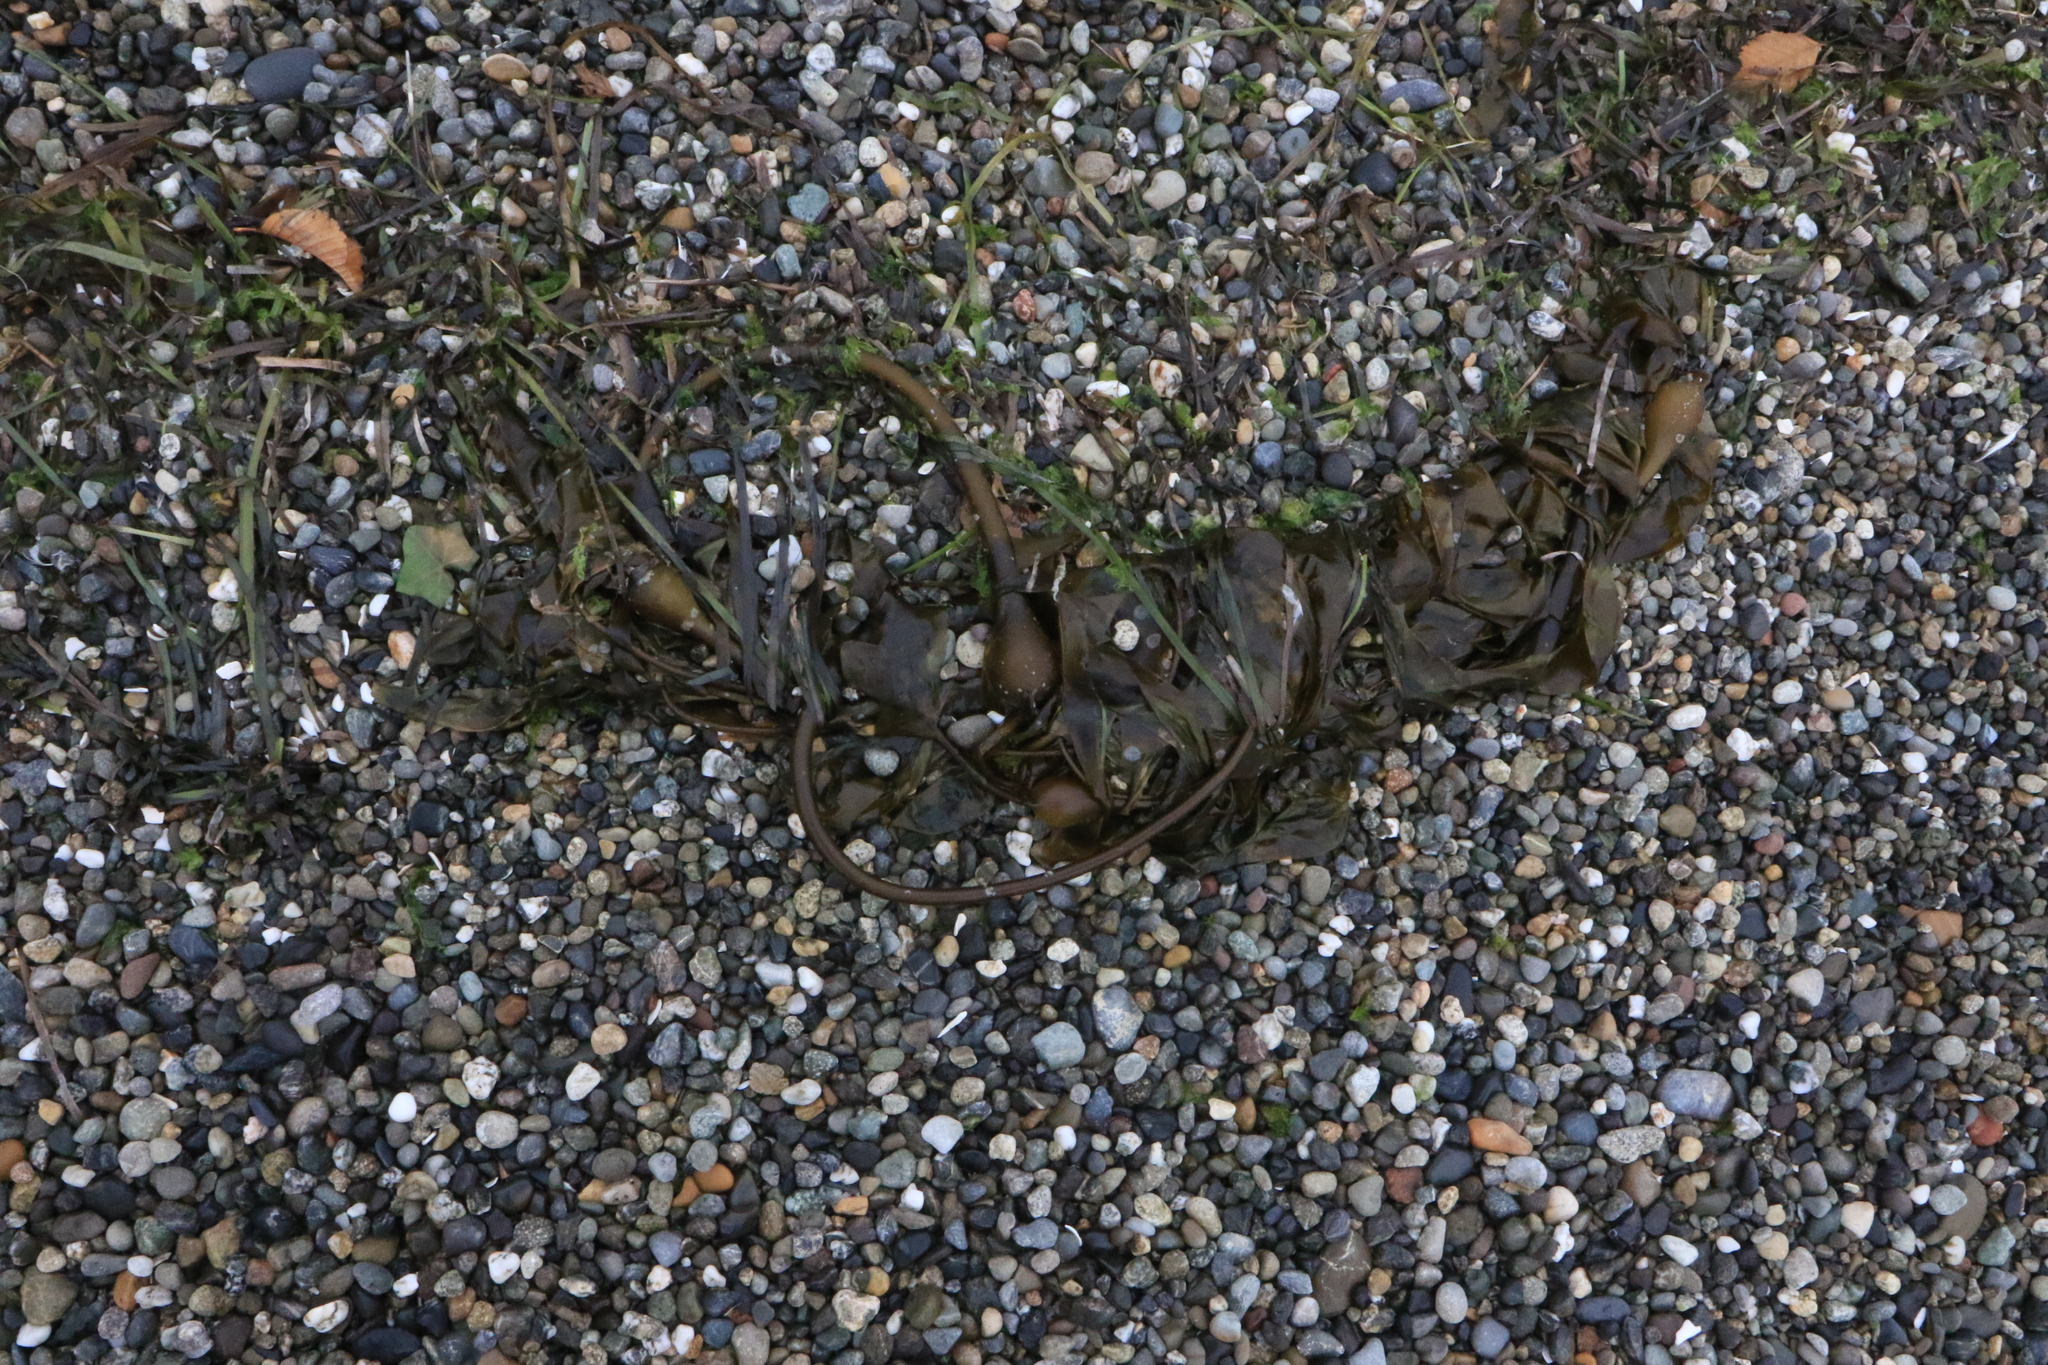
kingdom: Chromista
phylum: Ochrophyta
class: Phaeophyceae
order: Laminariales
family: Laminariaceae
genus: Nereocystis
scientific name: Nereocystis luetkeana
